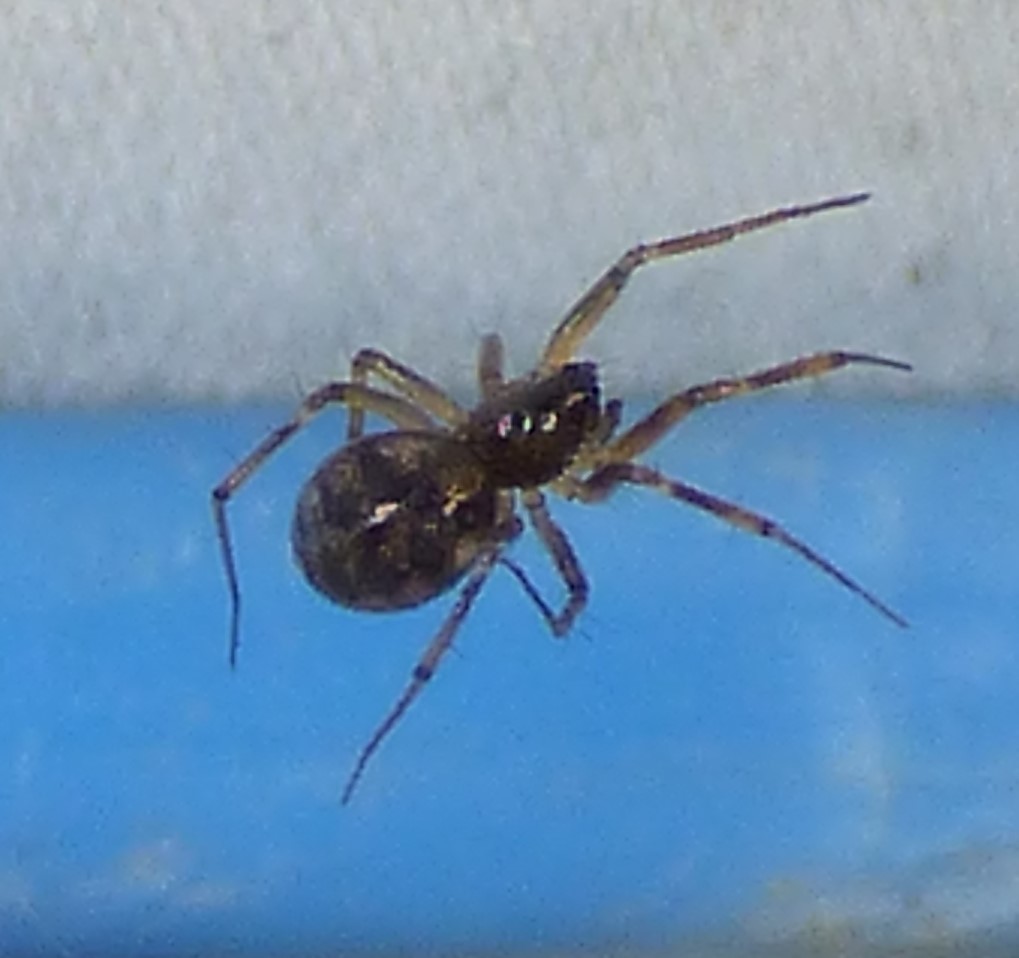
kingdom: Animalia
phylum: Arthropoda
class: Arachnida
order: Araneae
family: Theridiidae
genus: Steatoda
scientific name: Steatoda triangulosa
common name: Triangulate bud spider
